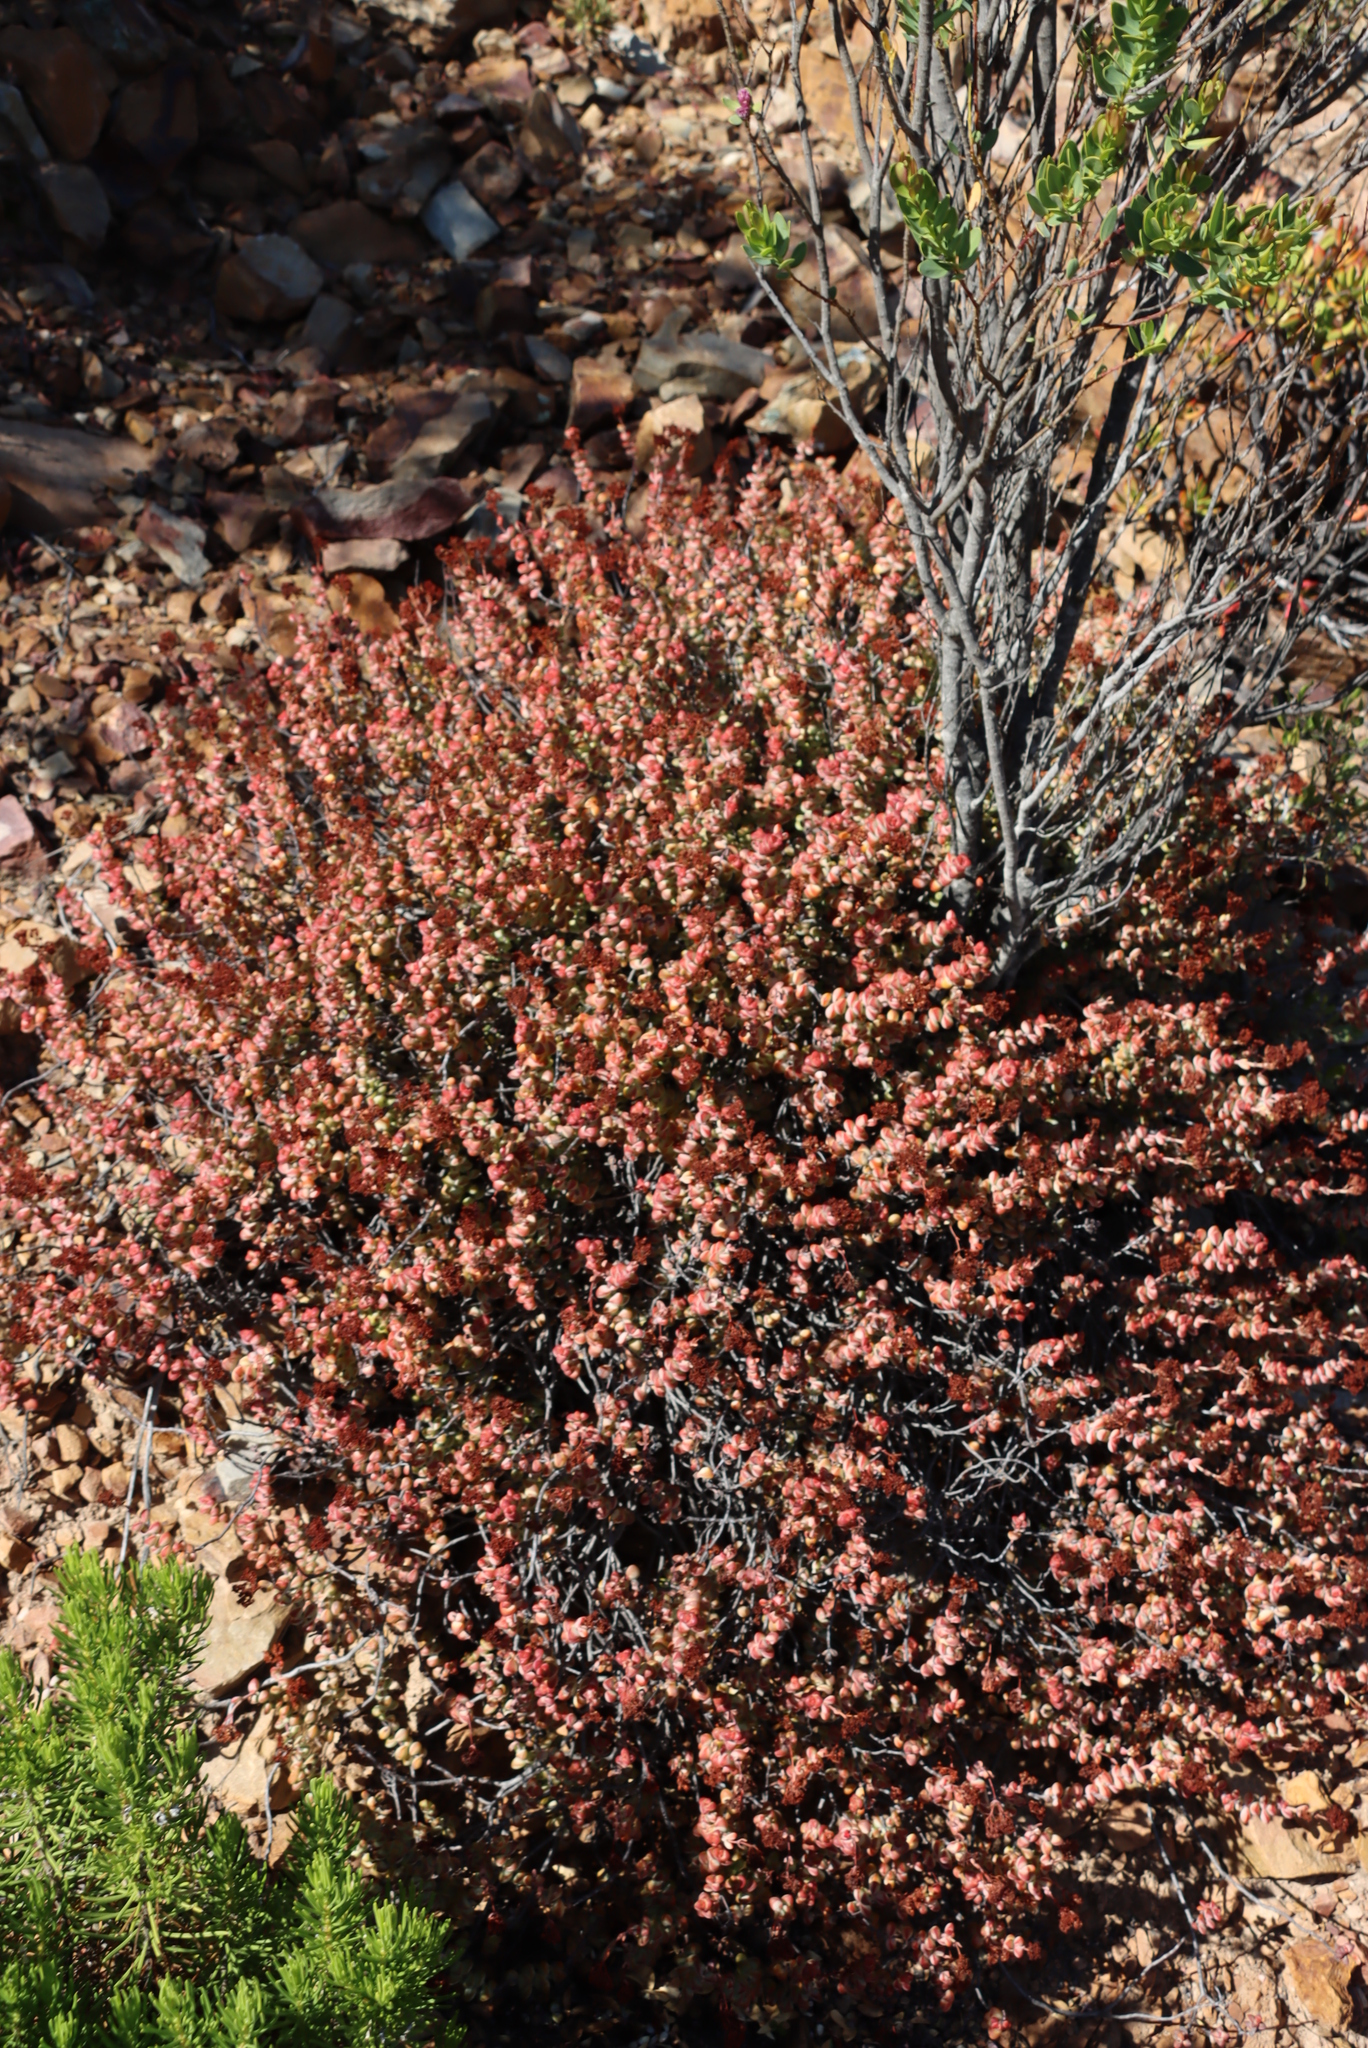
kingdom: Plantae
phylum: Tracheophyta
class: Magnoliopsida
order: Saxifragales
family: Crassulaceae
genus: Crassula
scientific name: Crassula rupestris
